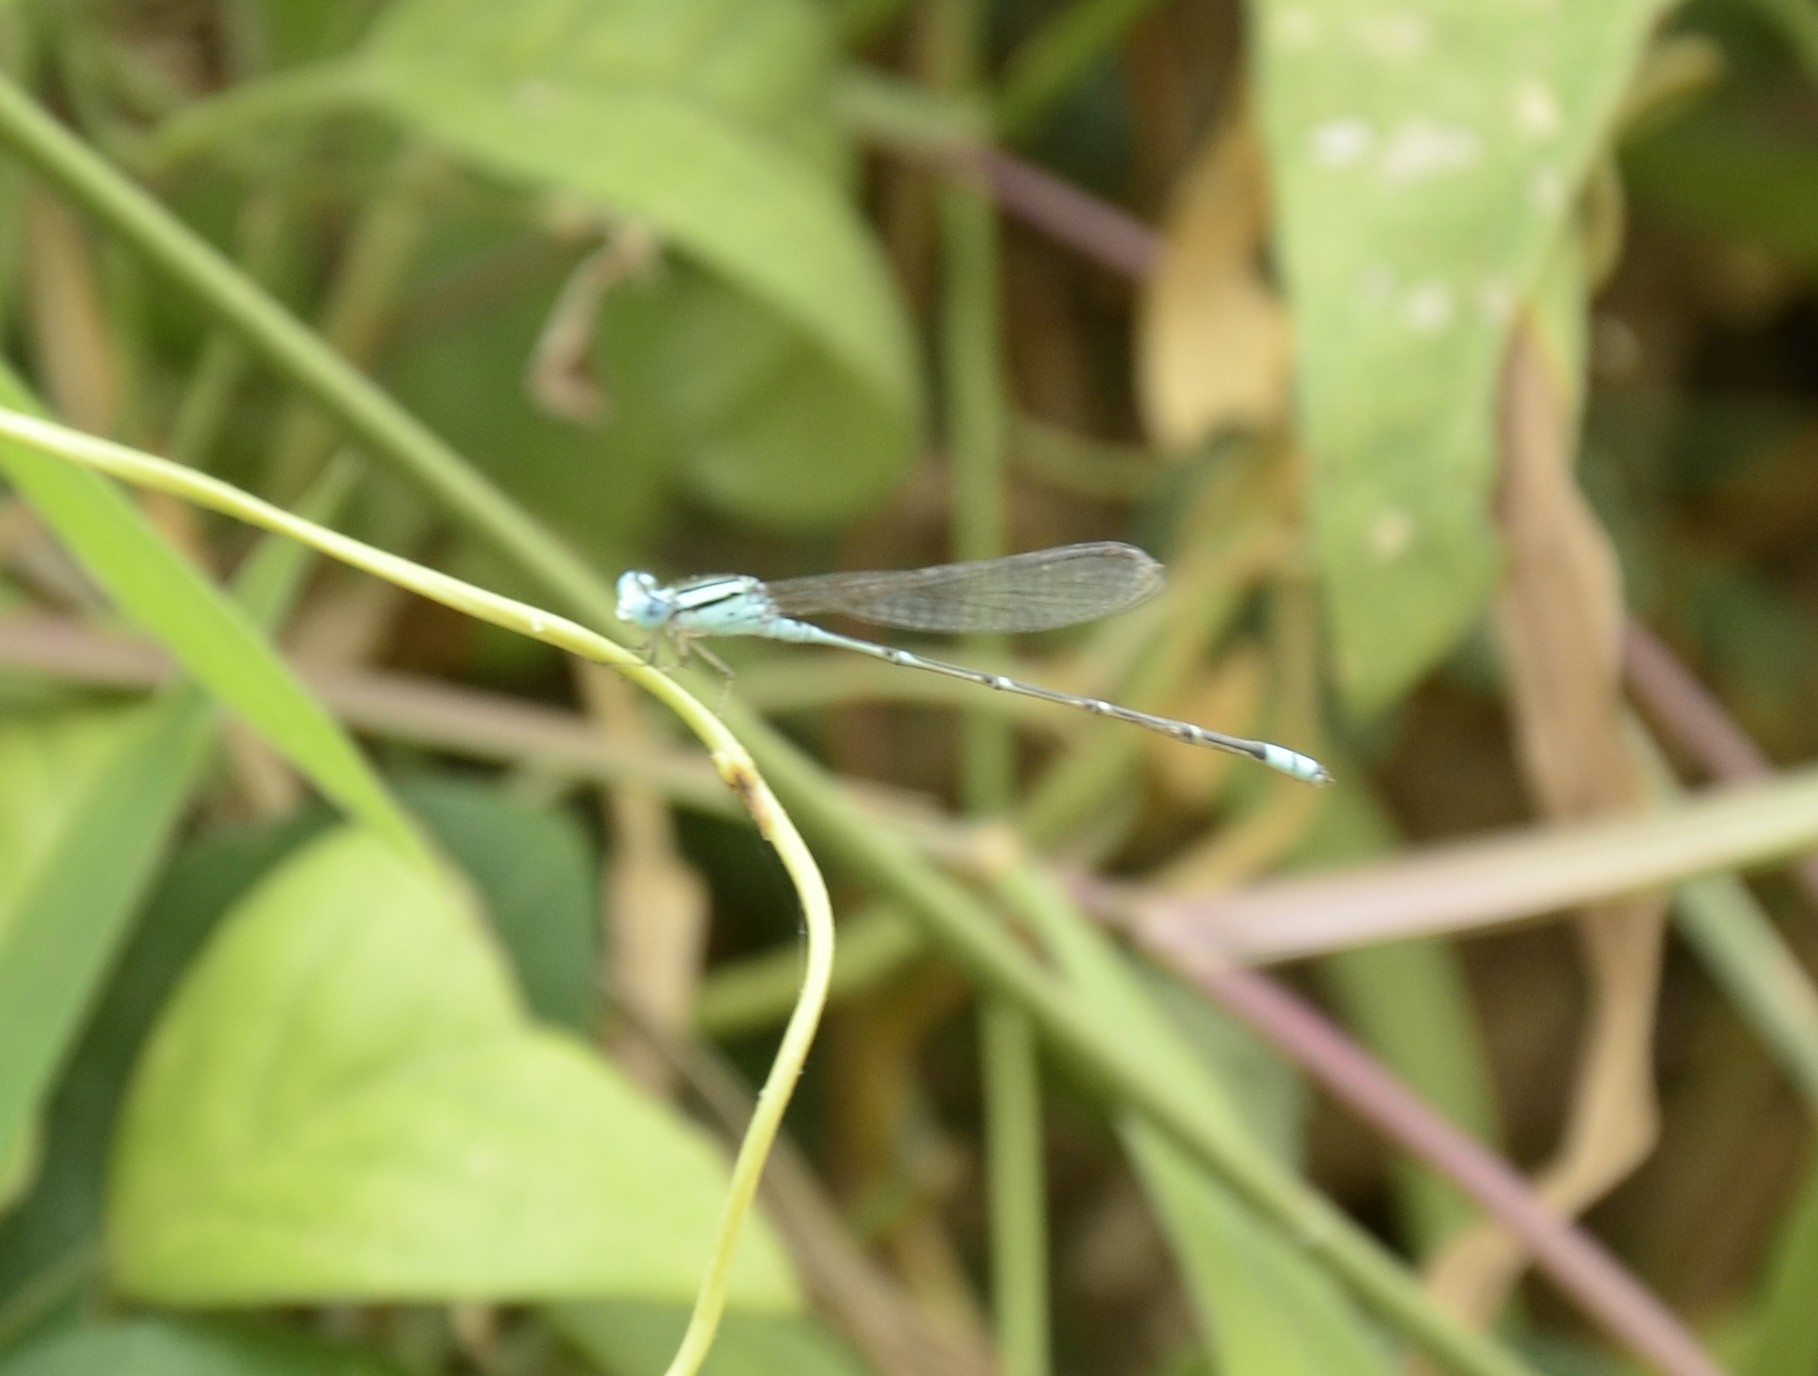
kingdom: Animalia
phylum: Arthropoda
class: Insecta
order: Odonata
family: Coenagrionidae
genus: Pseudagrion
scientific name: Pseudagrion microcephalum
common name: Blue riverdamsel
